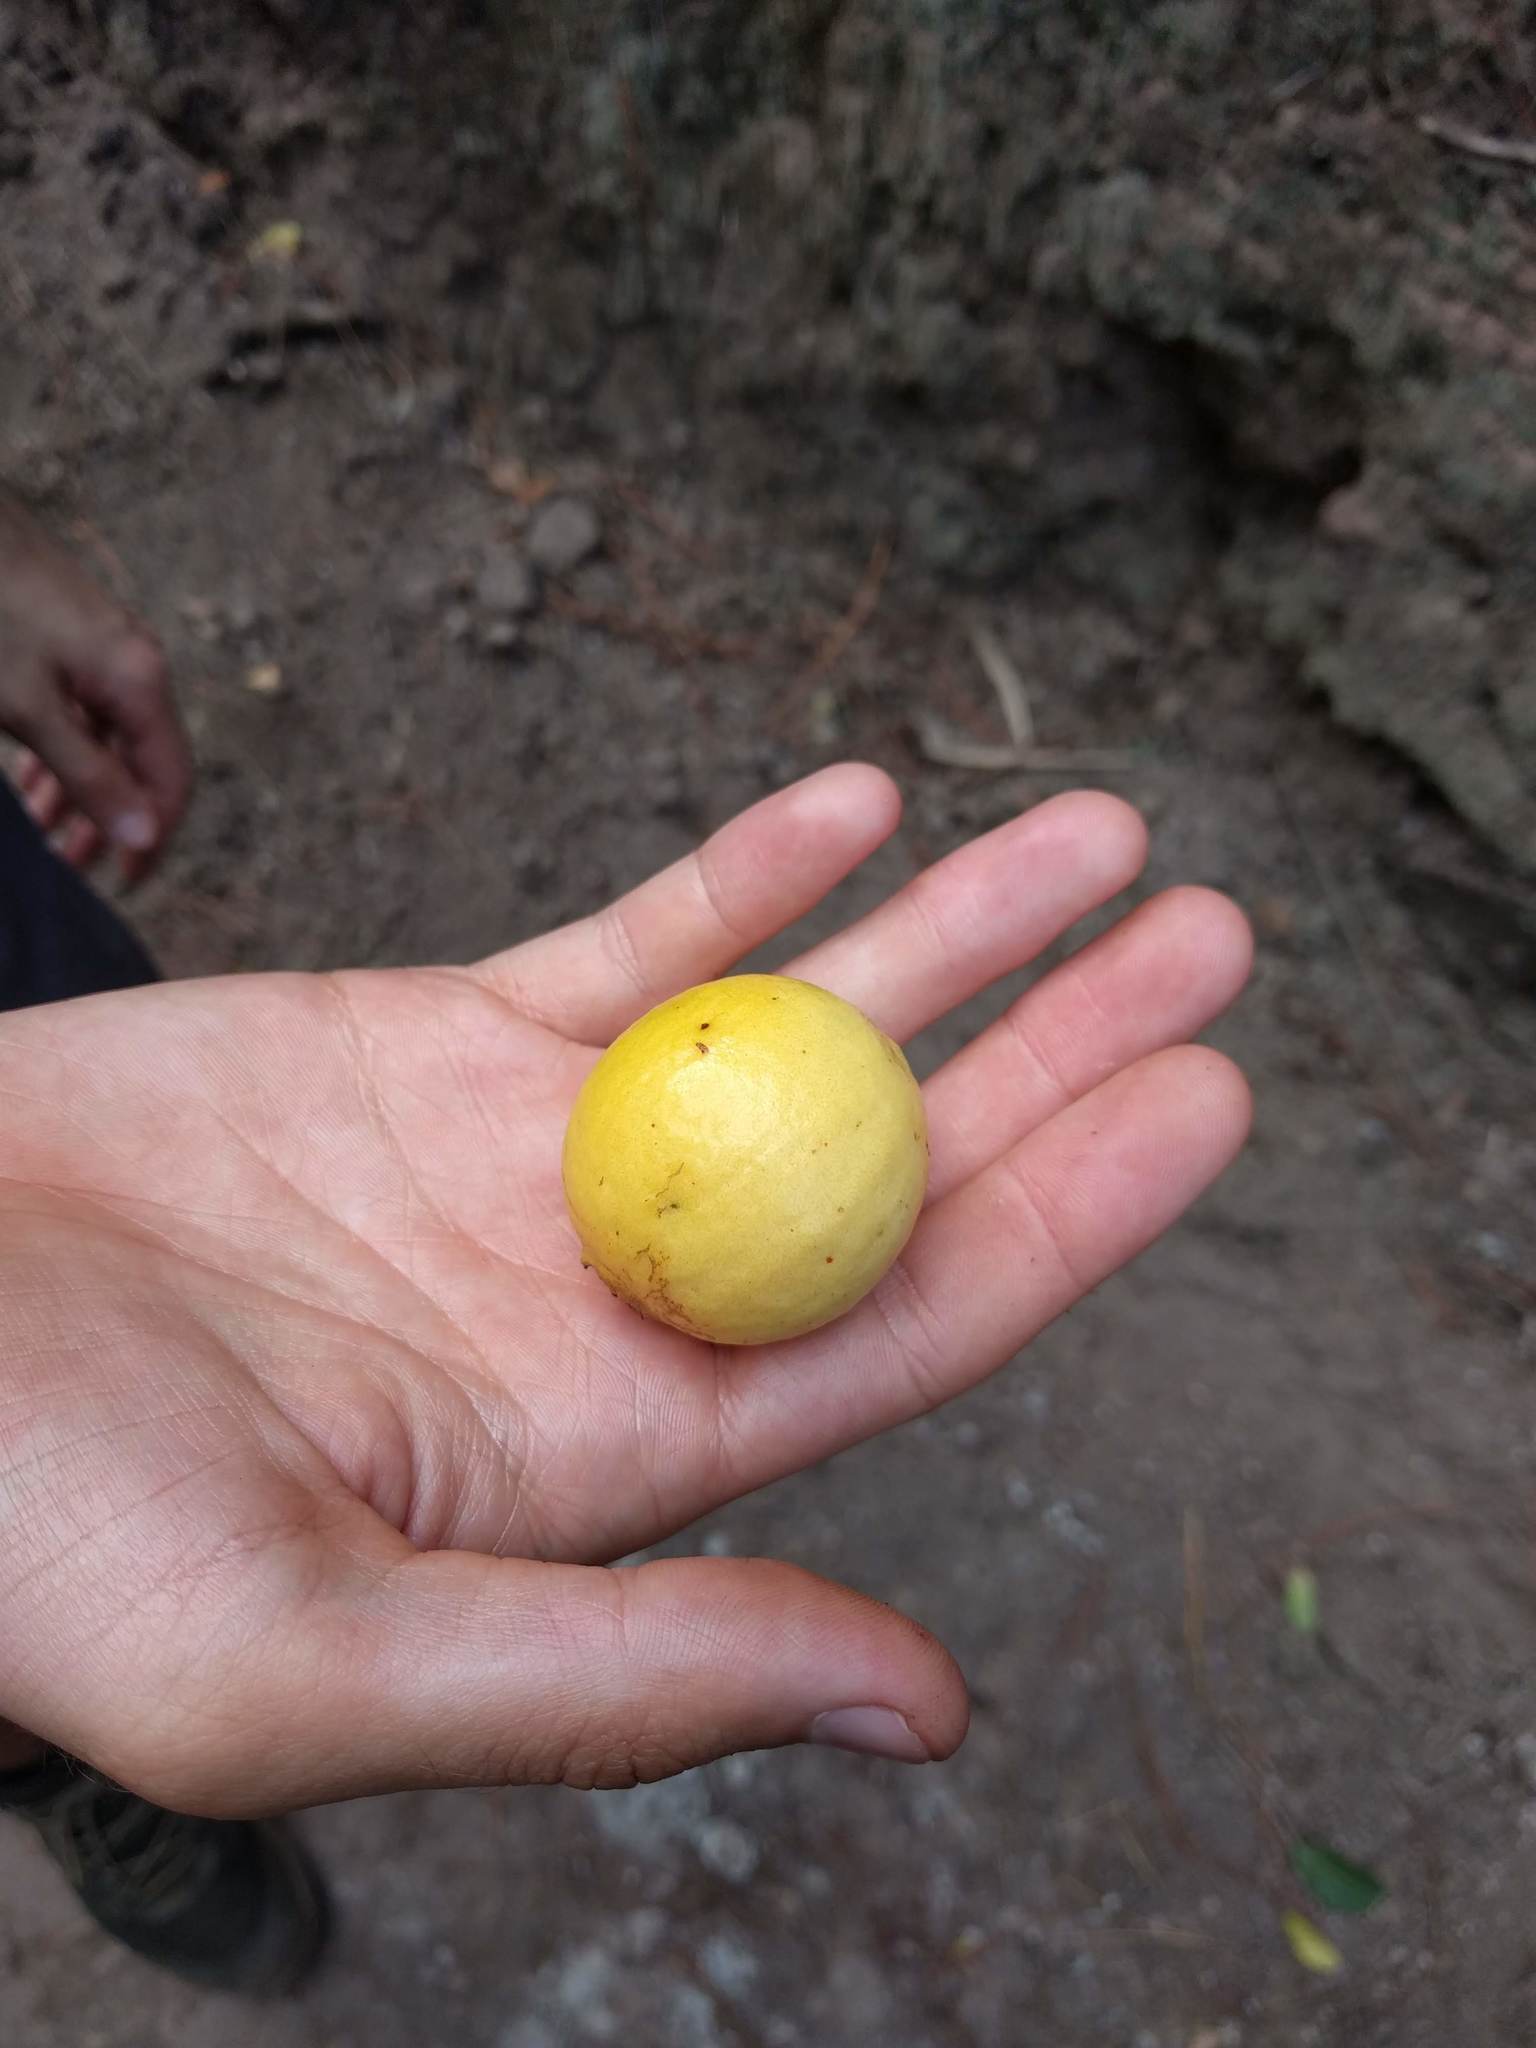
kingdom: Plantae
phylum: Tracheophyta
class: Magnoliopsida
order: Myrtales
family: Myrtaceae
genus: Psidium
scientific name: Psidium guajava
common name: Guava
